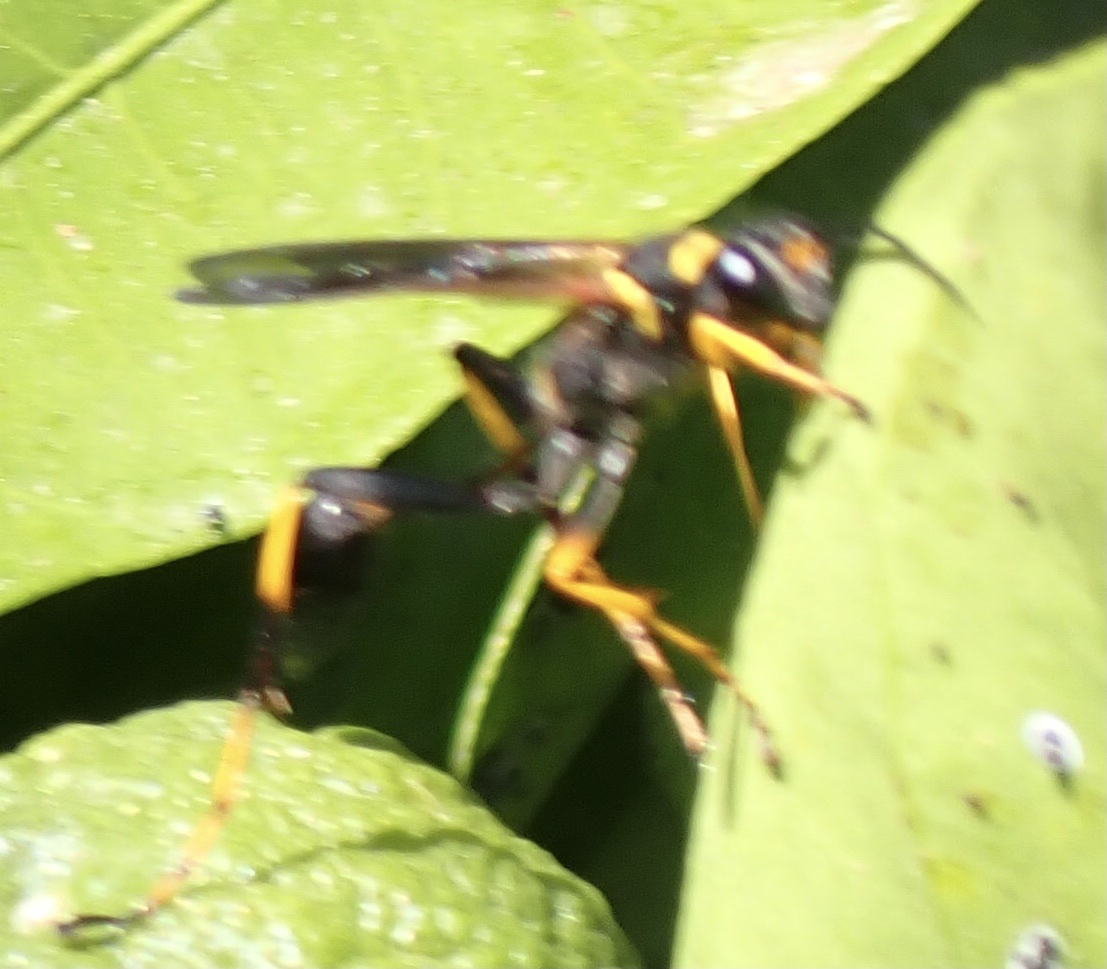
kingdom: Animalia
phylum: Arthropoda
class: Insecta
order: Hymenoptera
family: Sphecidae
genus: Sceliphron
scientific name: Sceliphron caementarium
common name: Mud dauber
